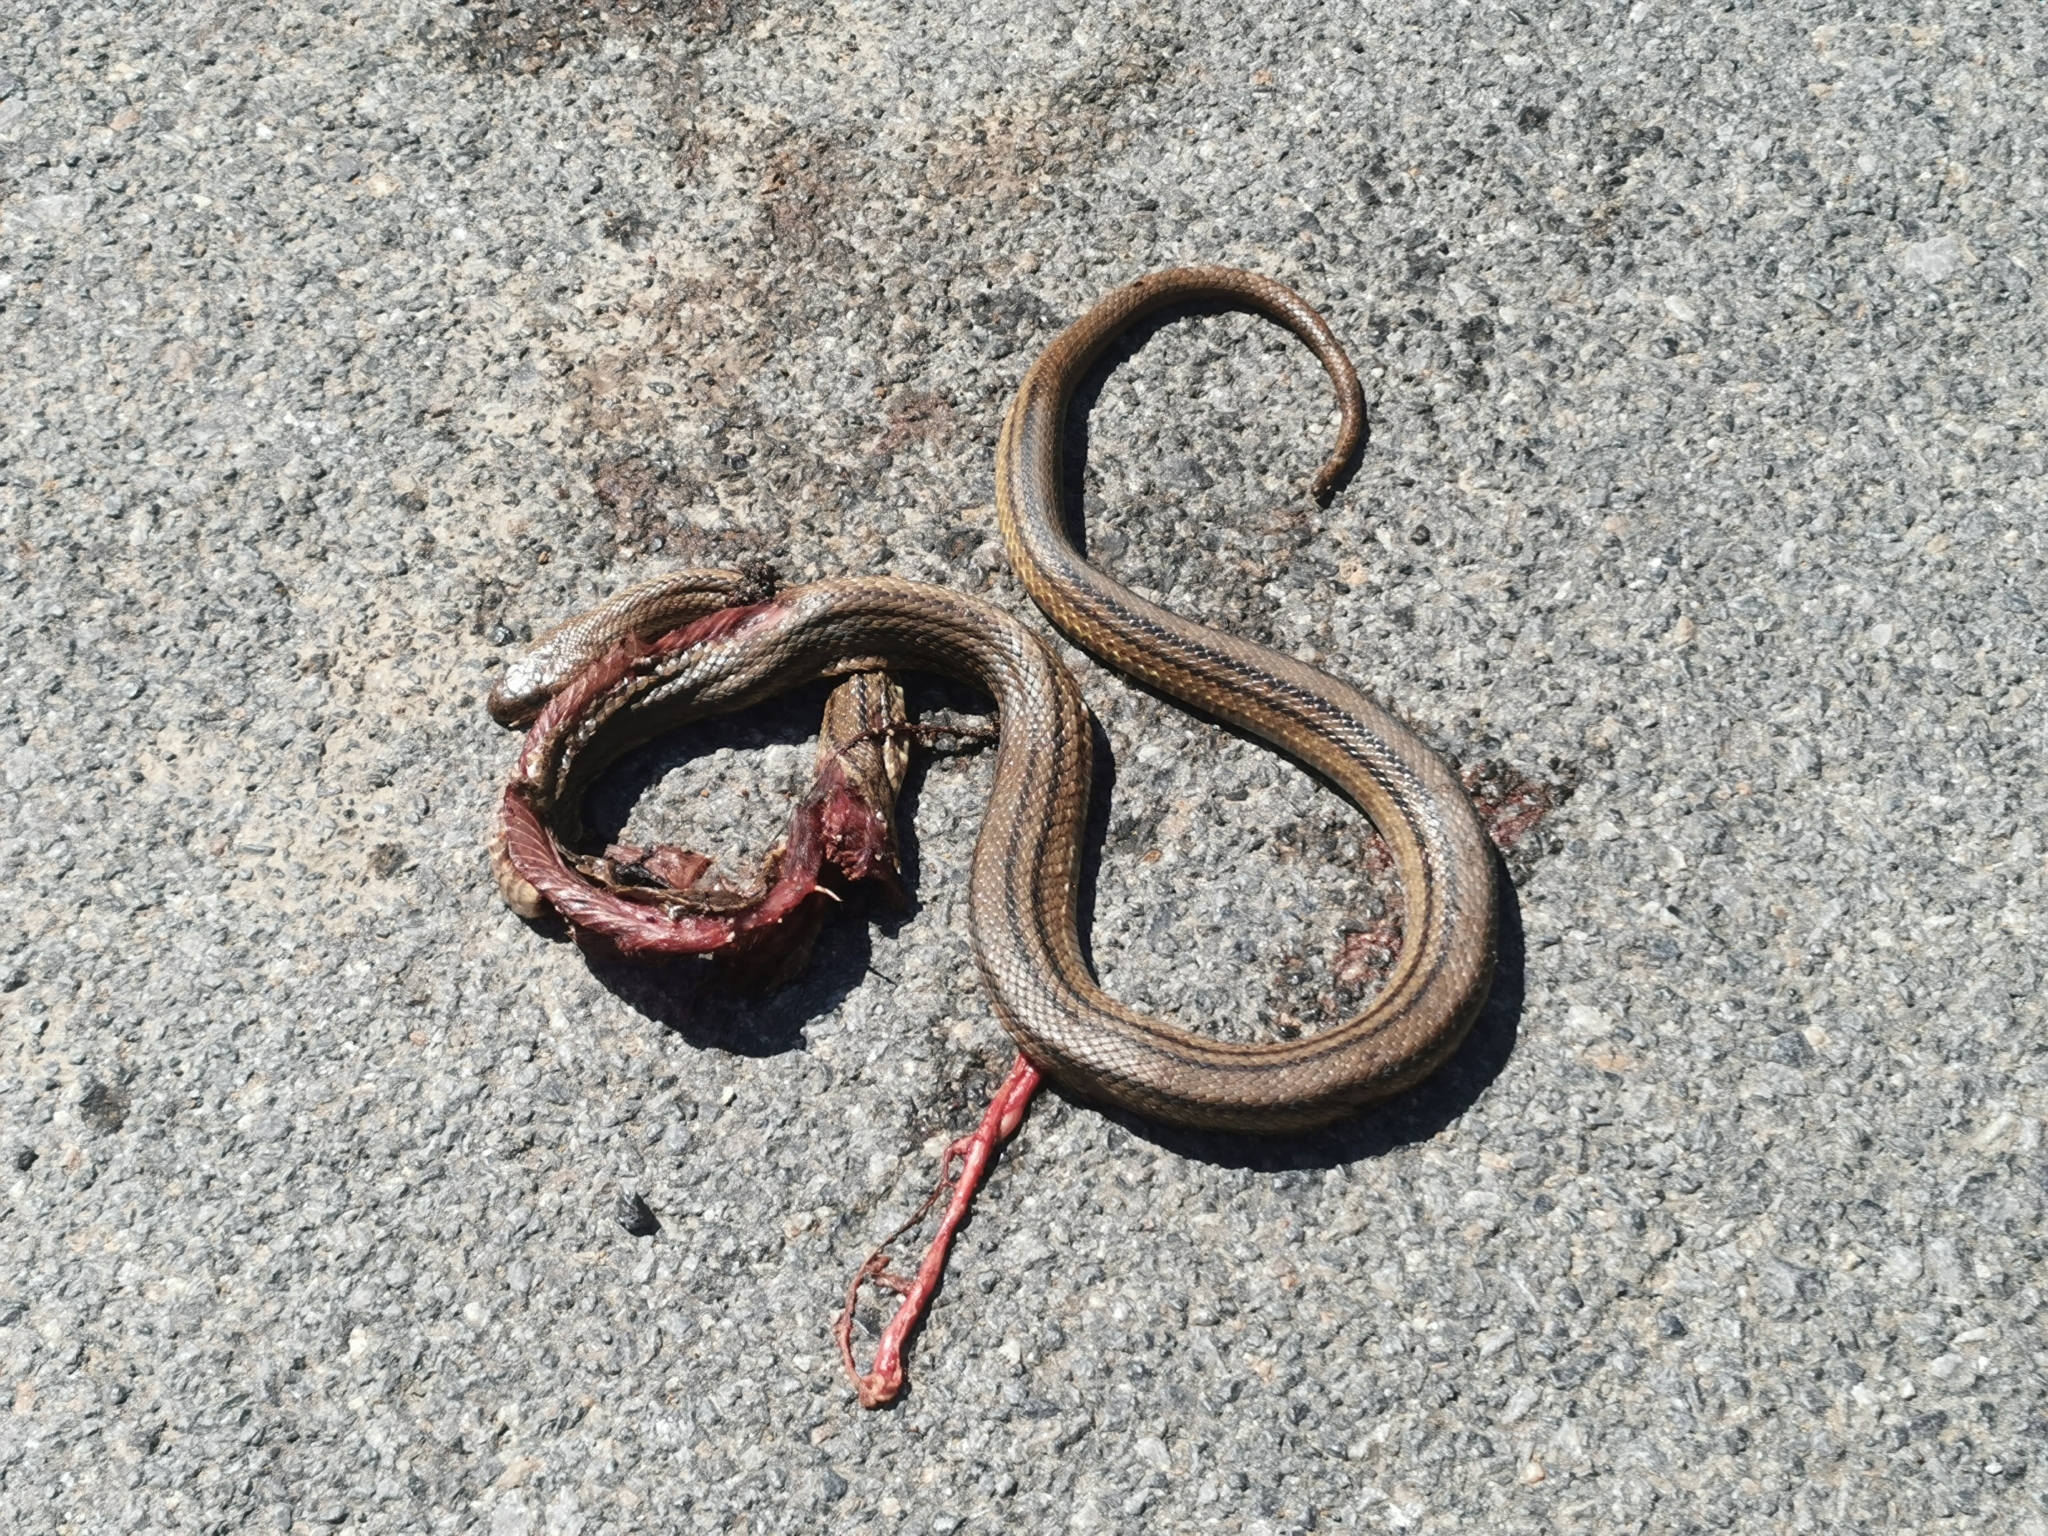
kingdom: Animalia
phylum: Chordata
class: Squamata
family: Colubridae
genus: Elaphe
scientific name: Elaphe quatuorlineata
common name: Four-lined snake
